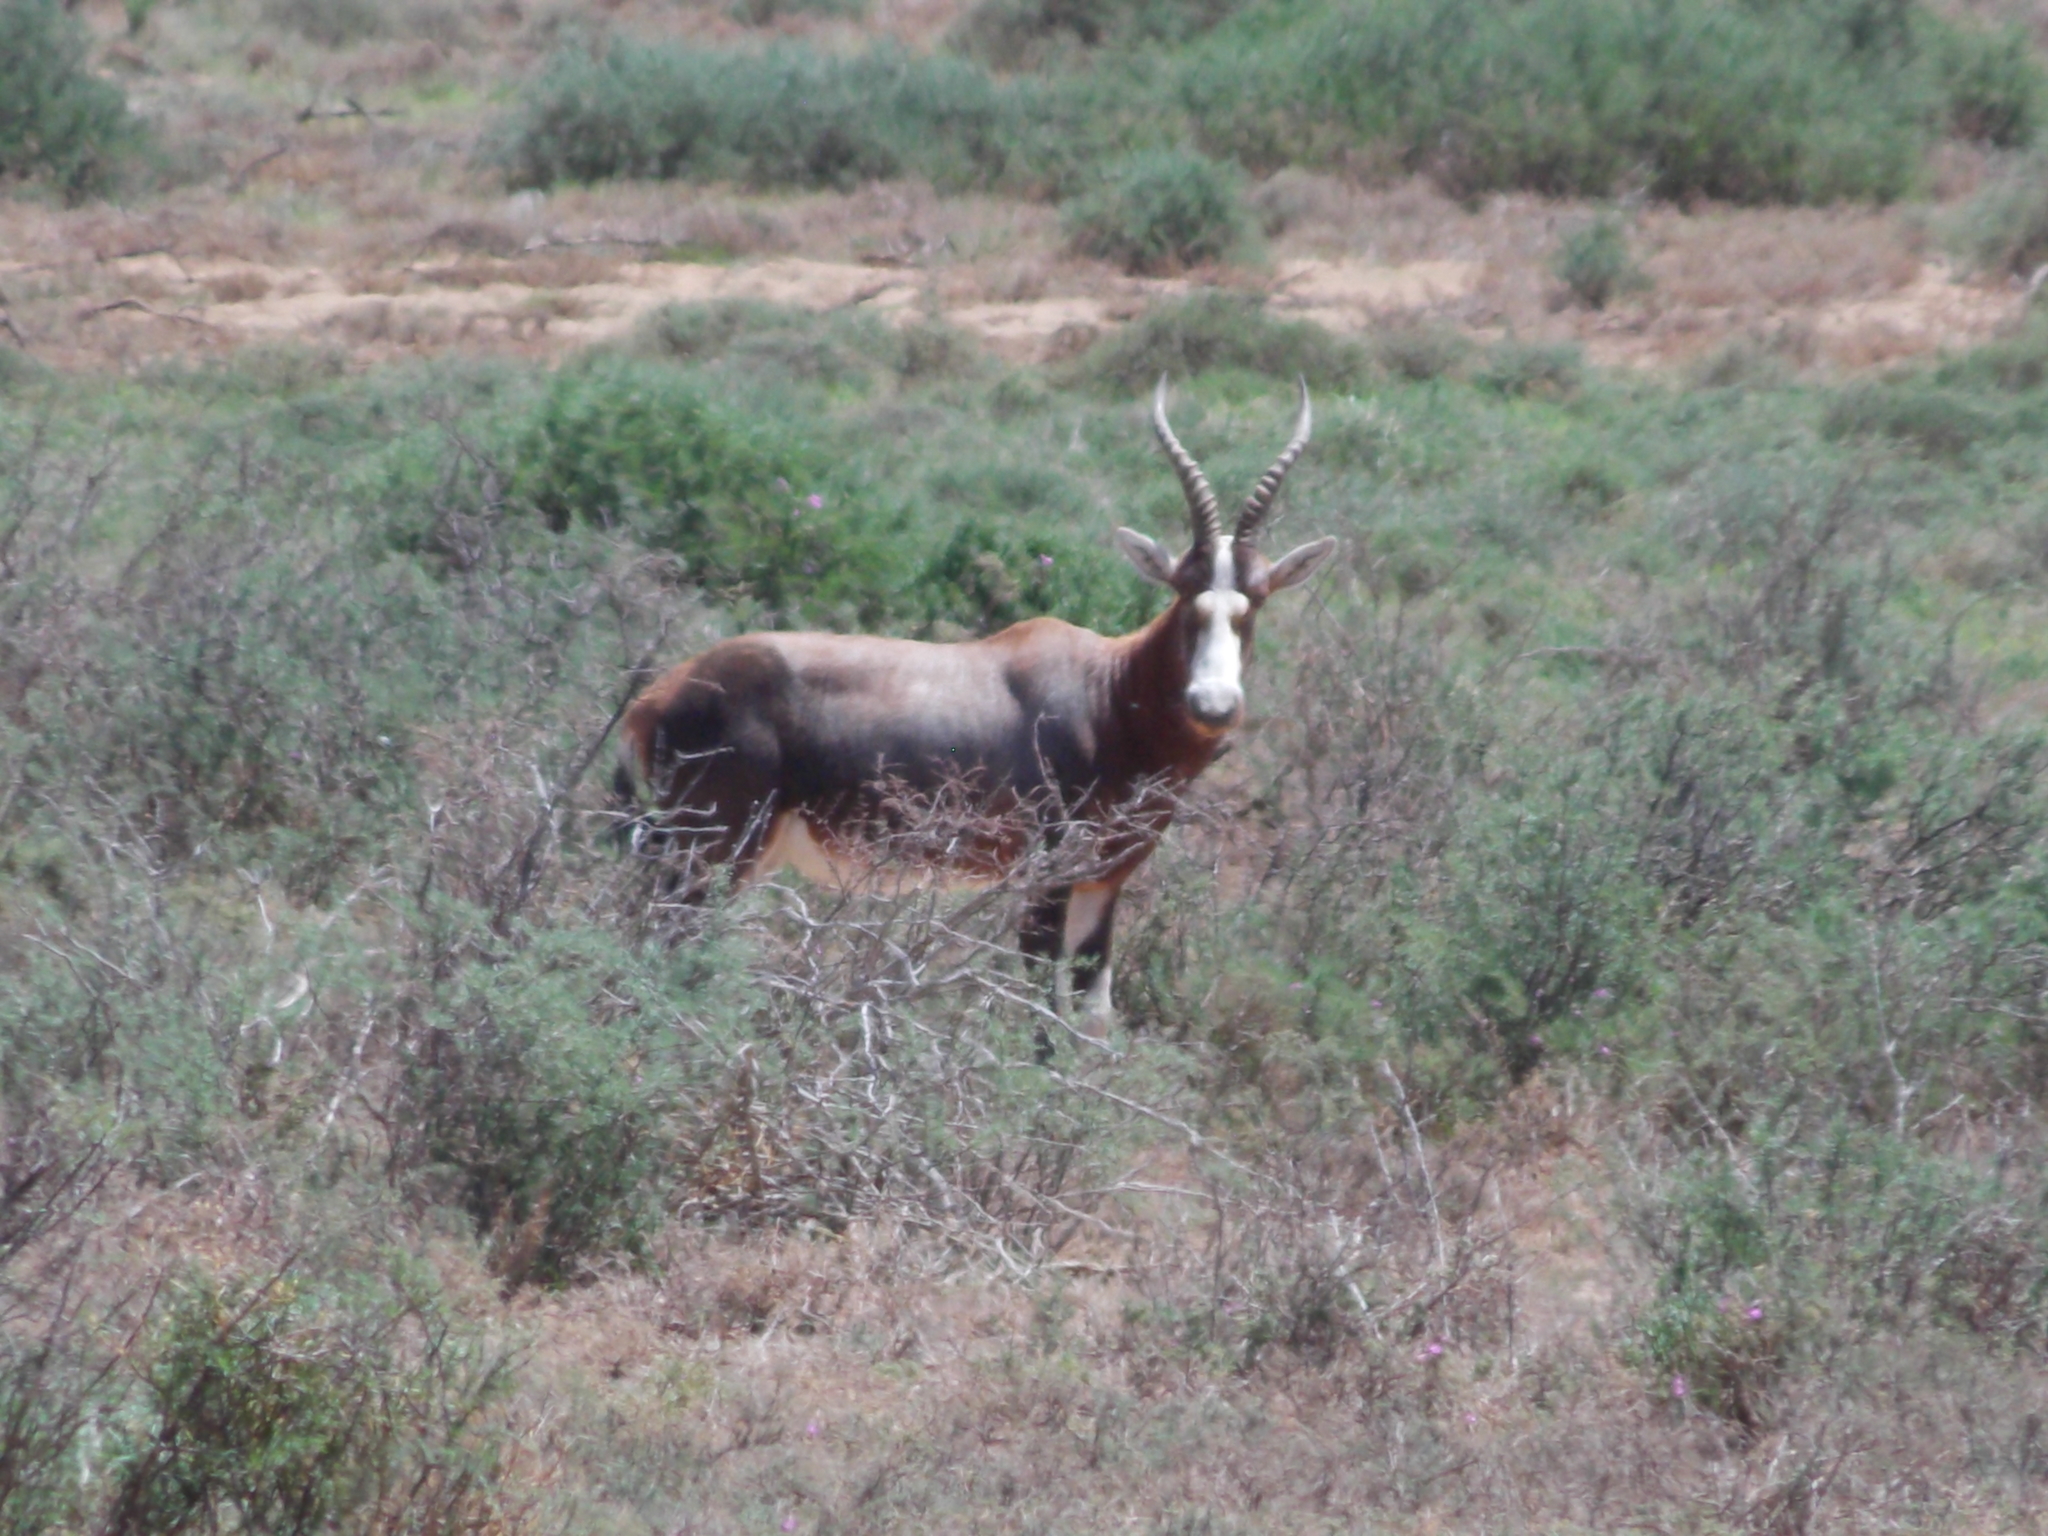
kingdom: Animalia
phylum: Chordata
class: Mammalia
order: Artiodactyla
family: Bovidae
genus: Damaliscus
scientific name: Damaliscus pygargus
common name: Bontebok
